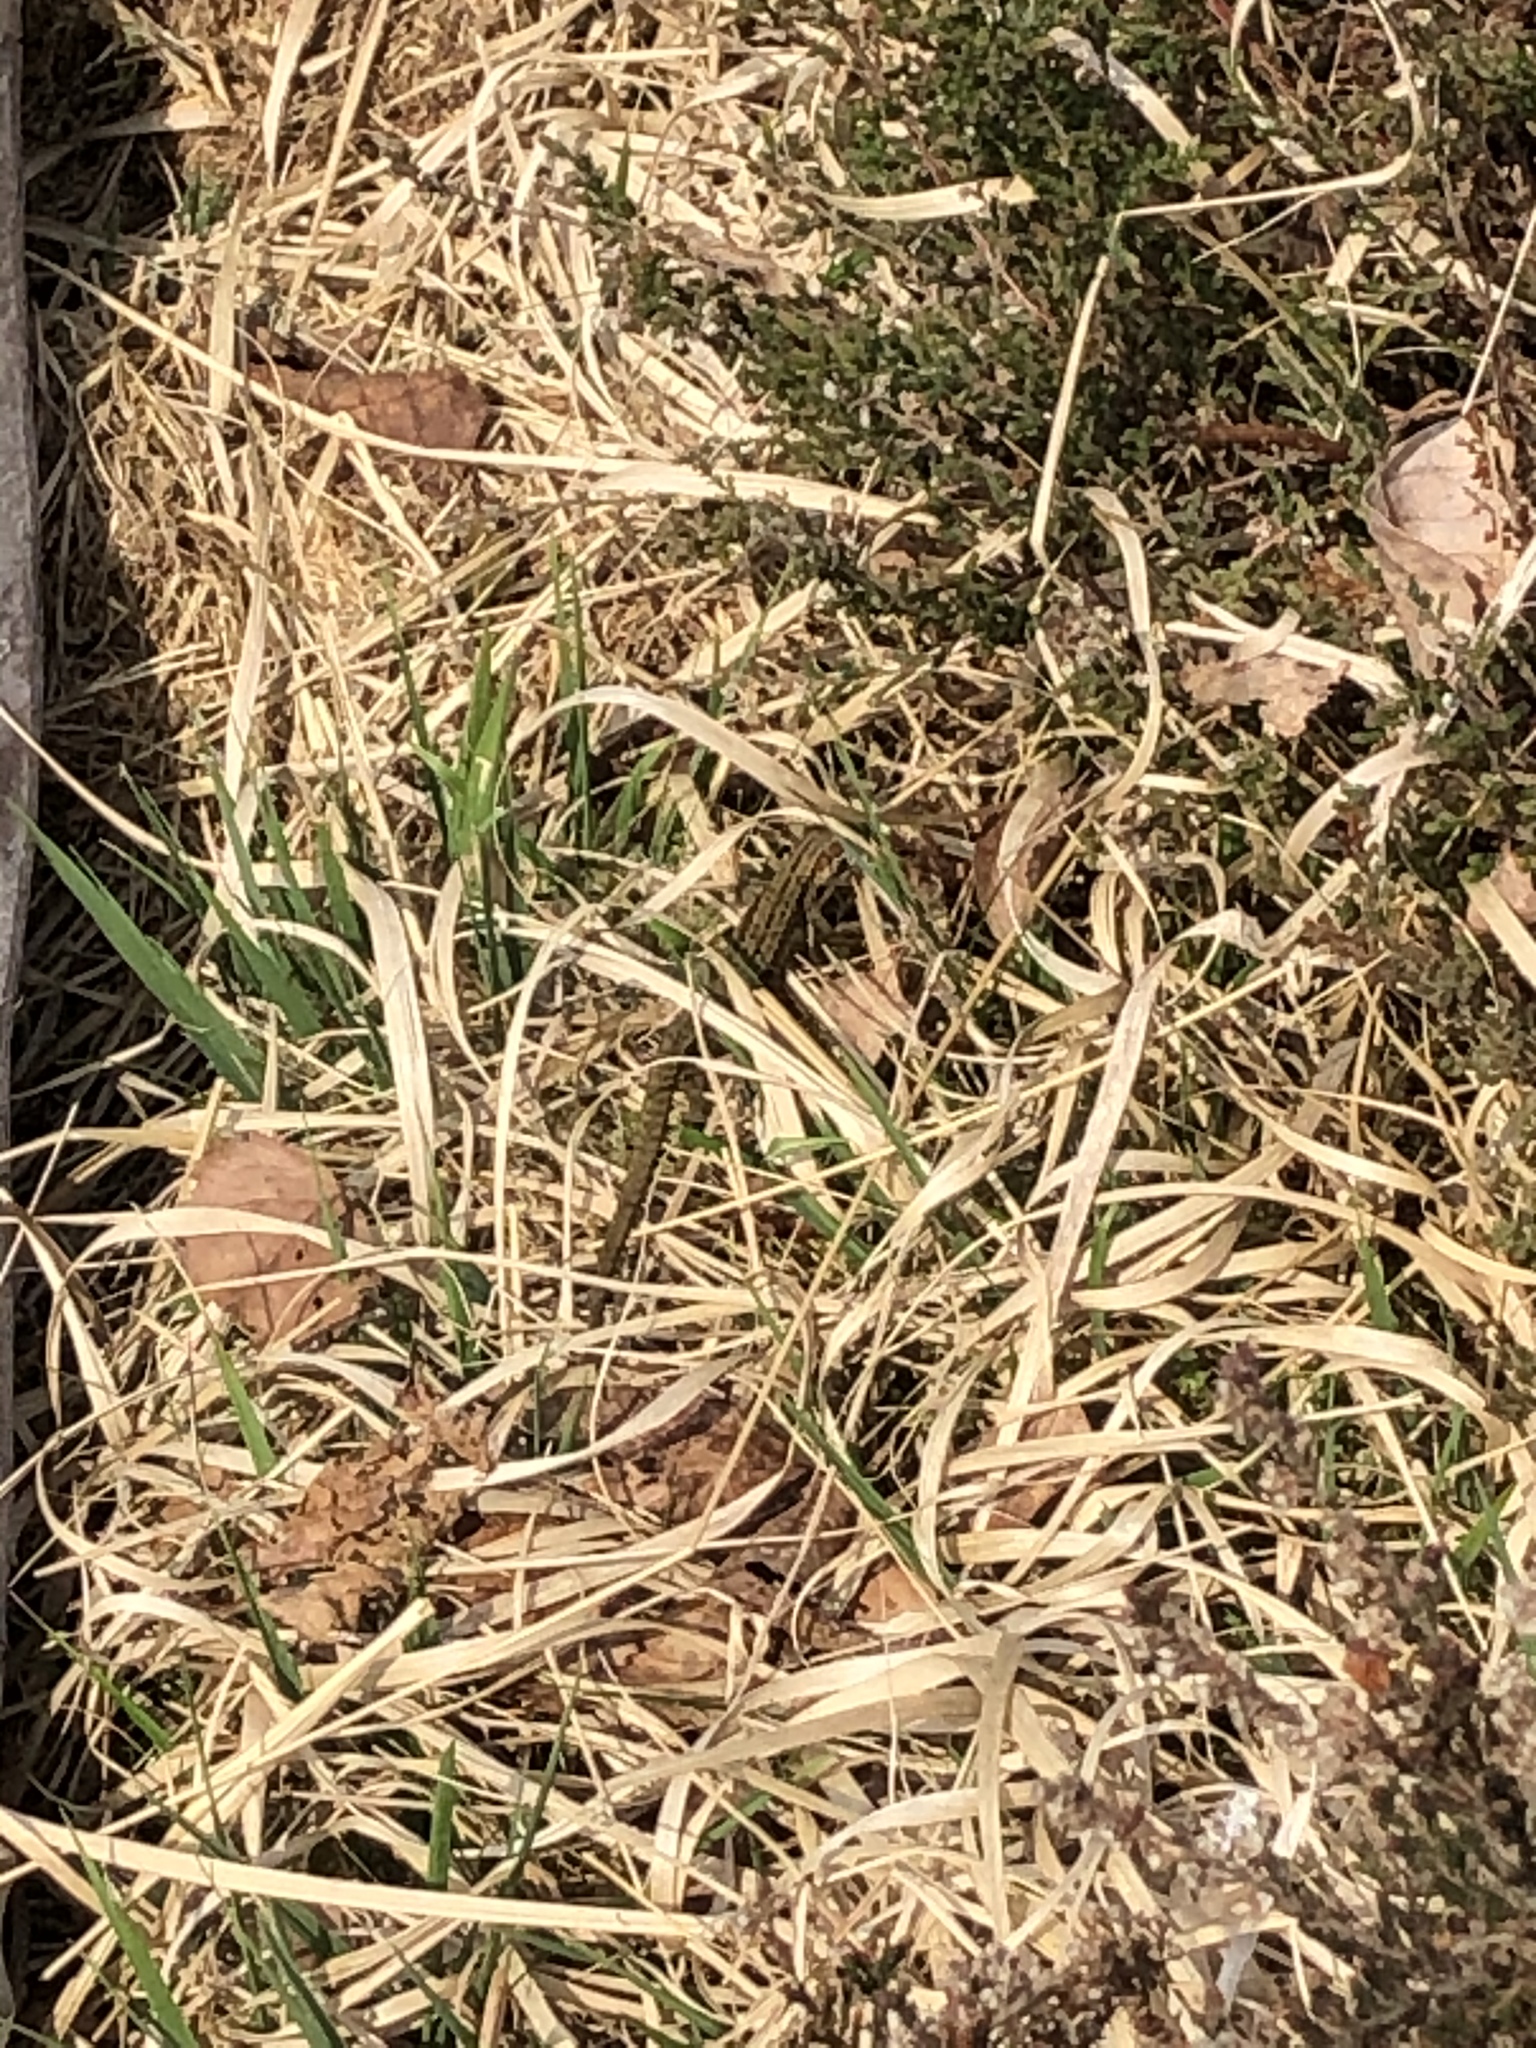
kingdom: Animalia
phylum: Chordata
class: Squamata
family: Lacertidae
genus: Zootoca
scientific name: Zootoca vivipara
